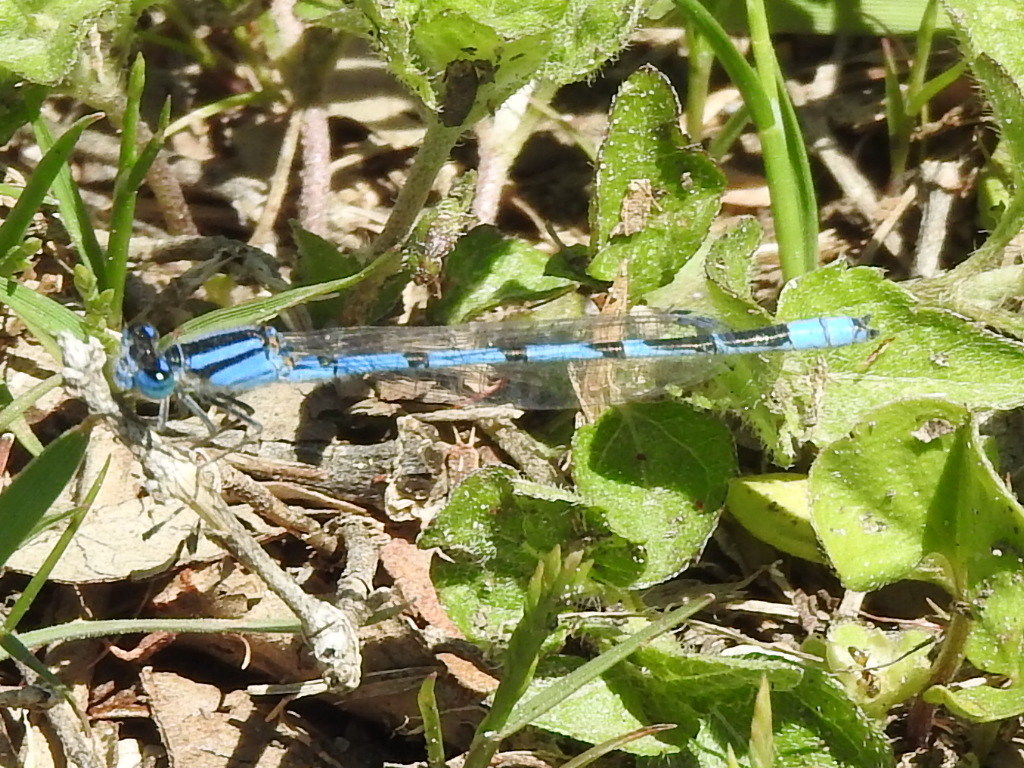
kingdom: Animalia
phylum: Arthropoda
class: Insecta
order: Odonata
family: Coenagrionidae
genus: Enallagma
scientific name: Enallagma civile
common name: Damselfly
